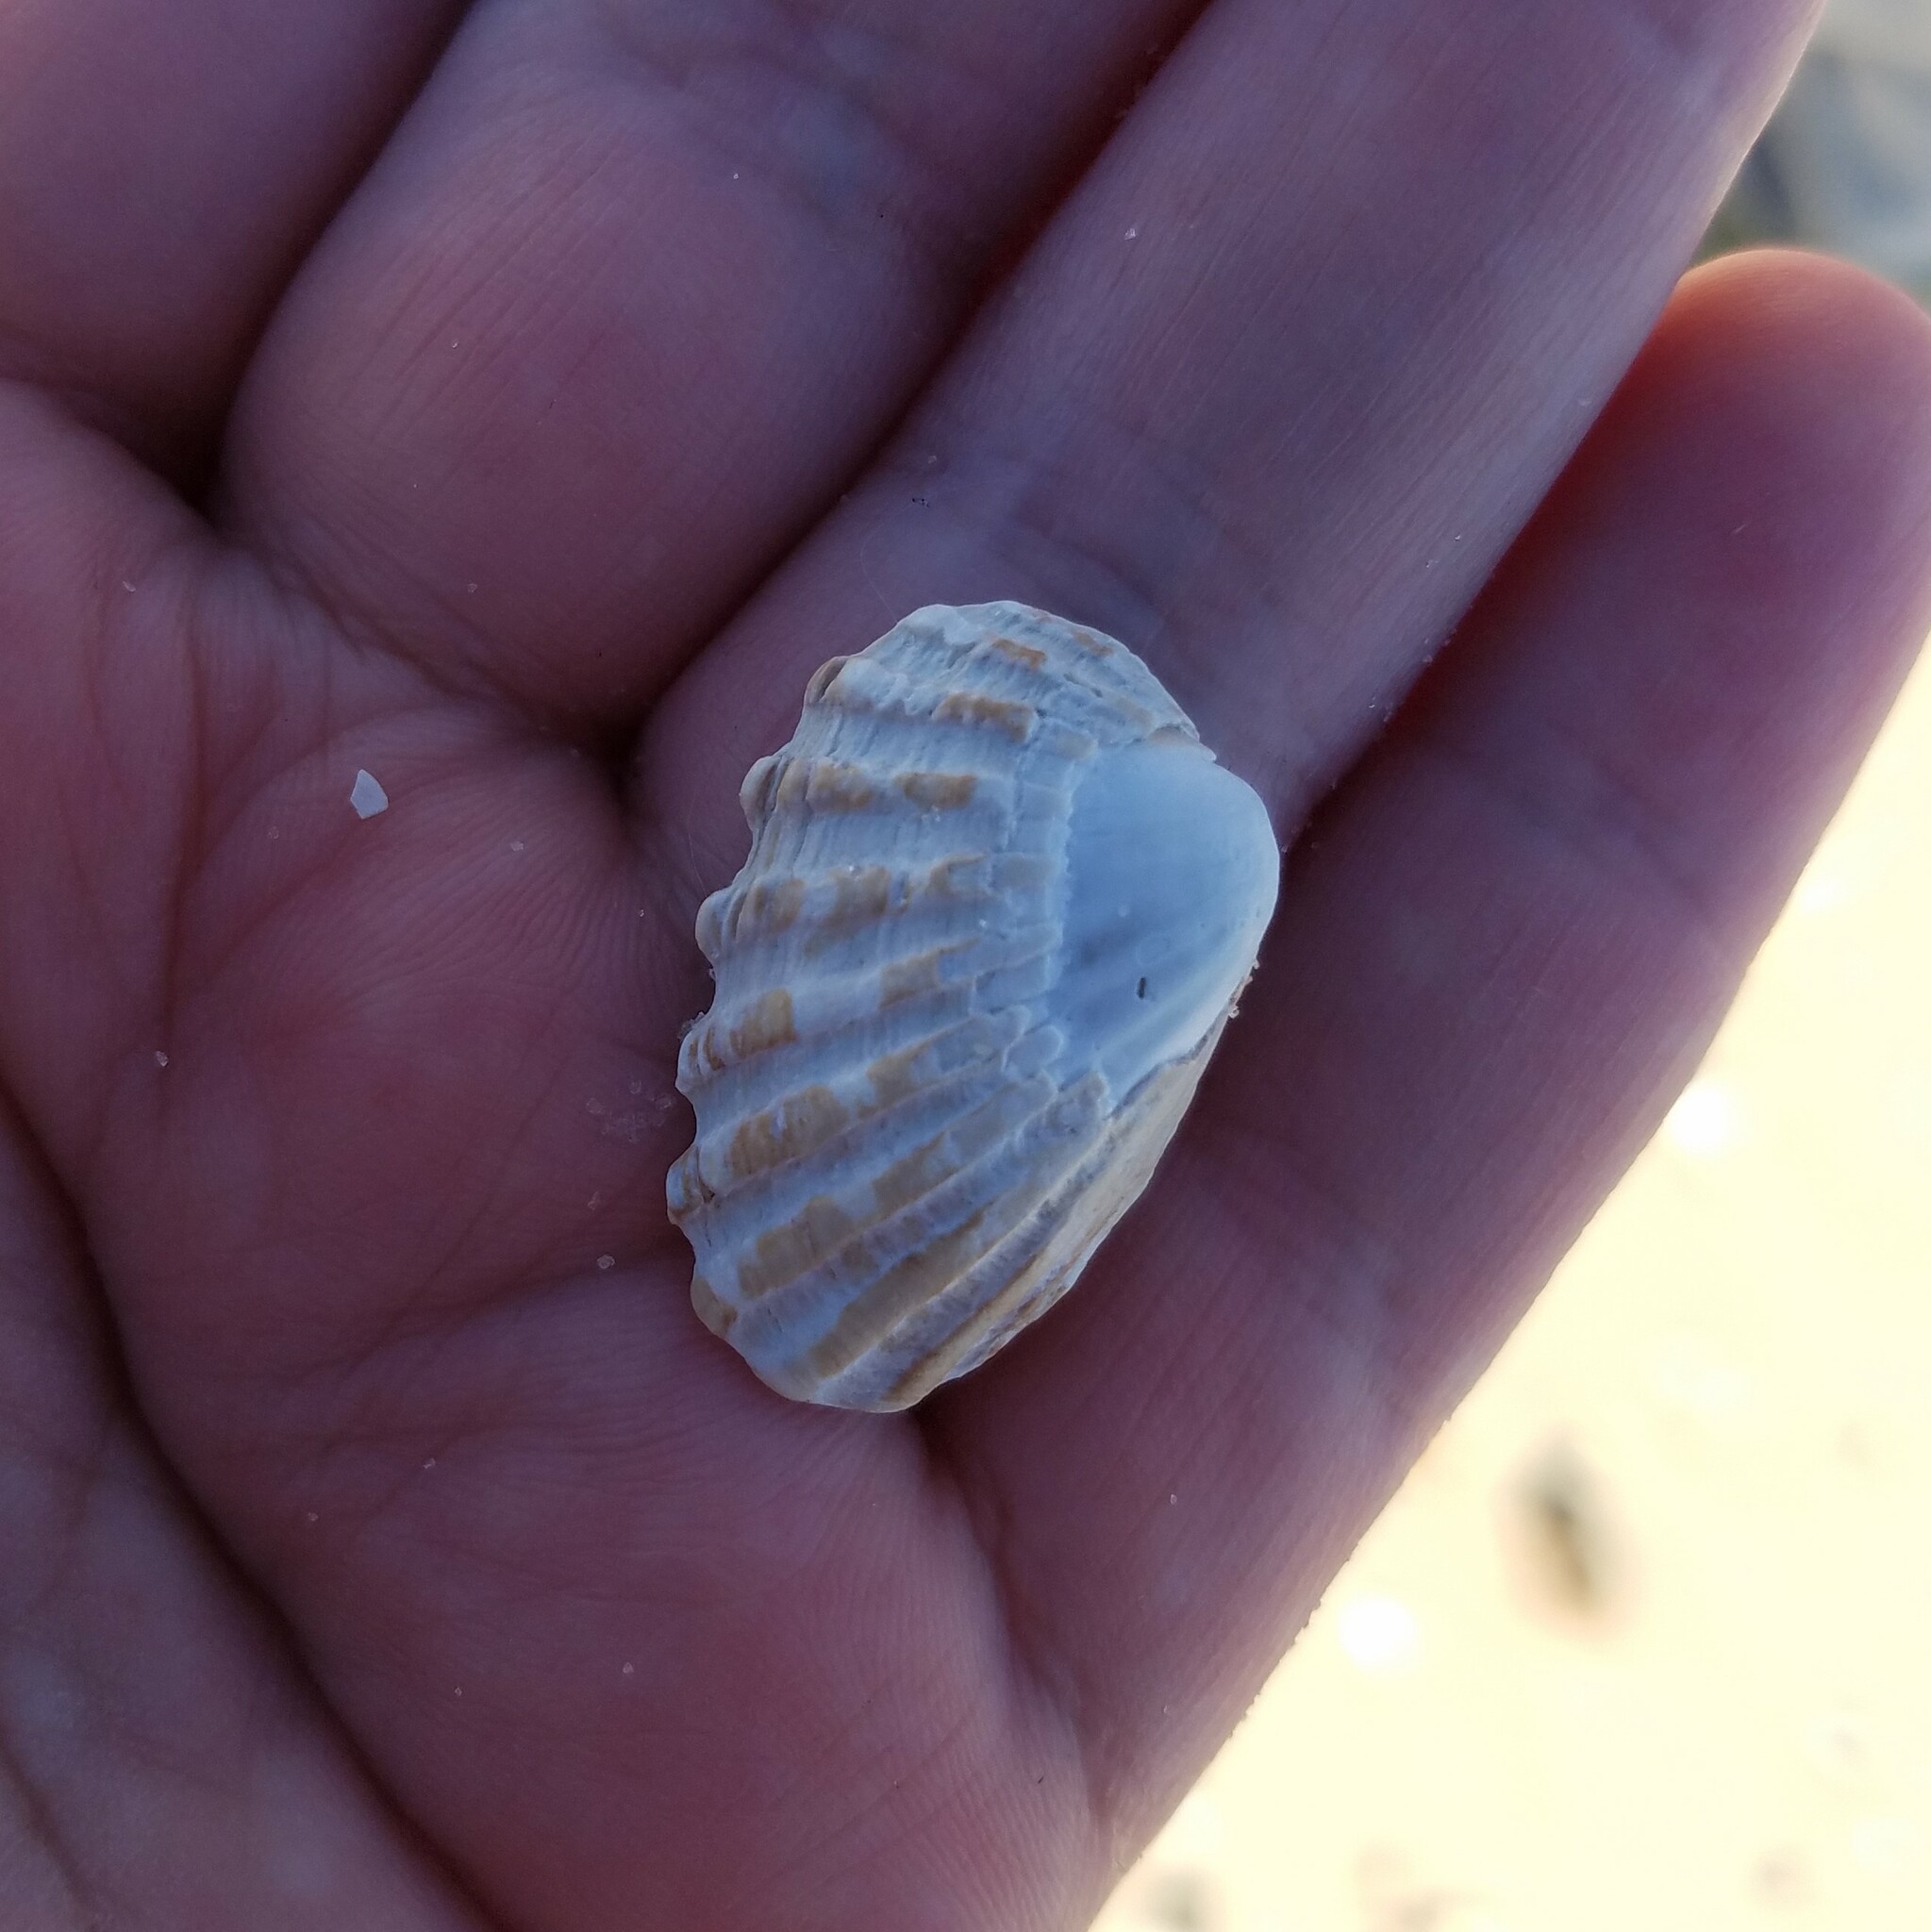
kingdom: Animalia
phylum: Mollusca
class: Bivalvia
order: Carditida
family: Carditidae
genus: Cardites
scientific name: Cardites floridanus
